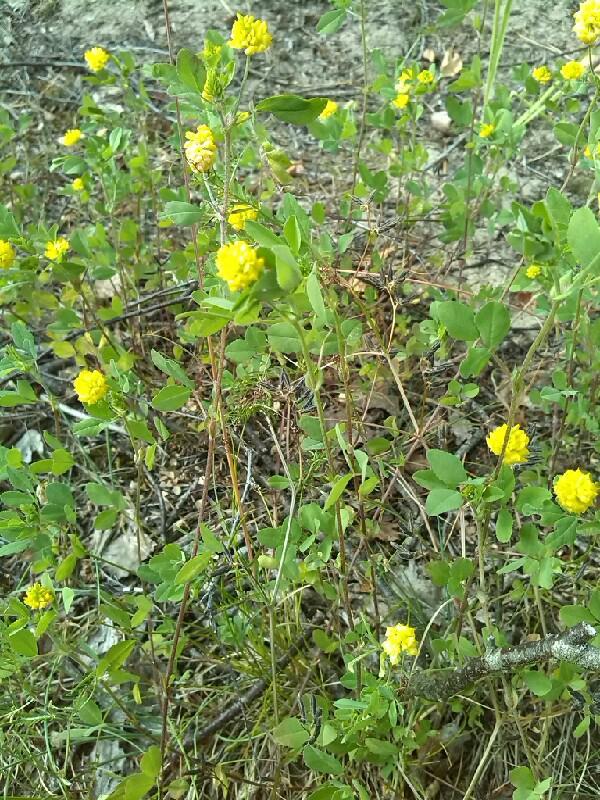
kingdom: Plantae
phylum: Tracheophyta
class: Magnoliopsida
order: Fabales
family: Fabaceae
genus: Trifolium
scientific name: Trifolium campestre
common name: Field clover
